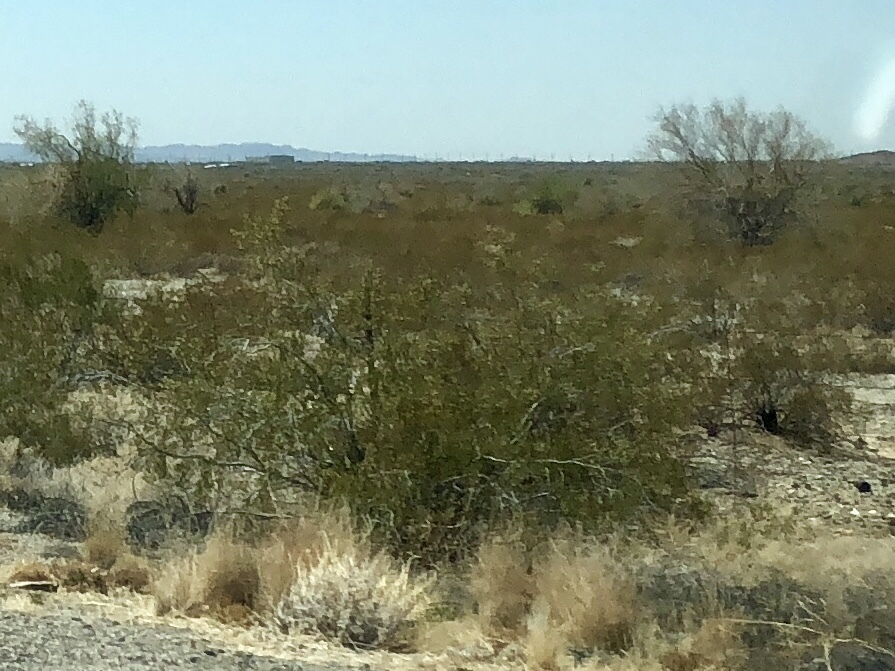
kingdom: Plantae
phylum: Tracheophyta
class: Magnoliopsida
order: Zygophyllales
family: Zygophyllaceae
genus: Larrea
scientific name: Larrea tridentata
